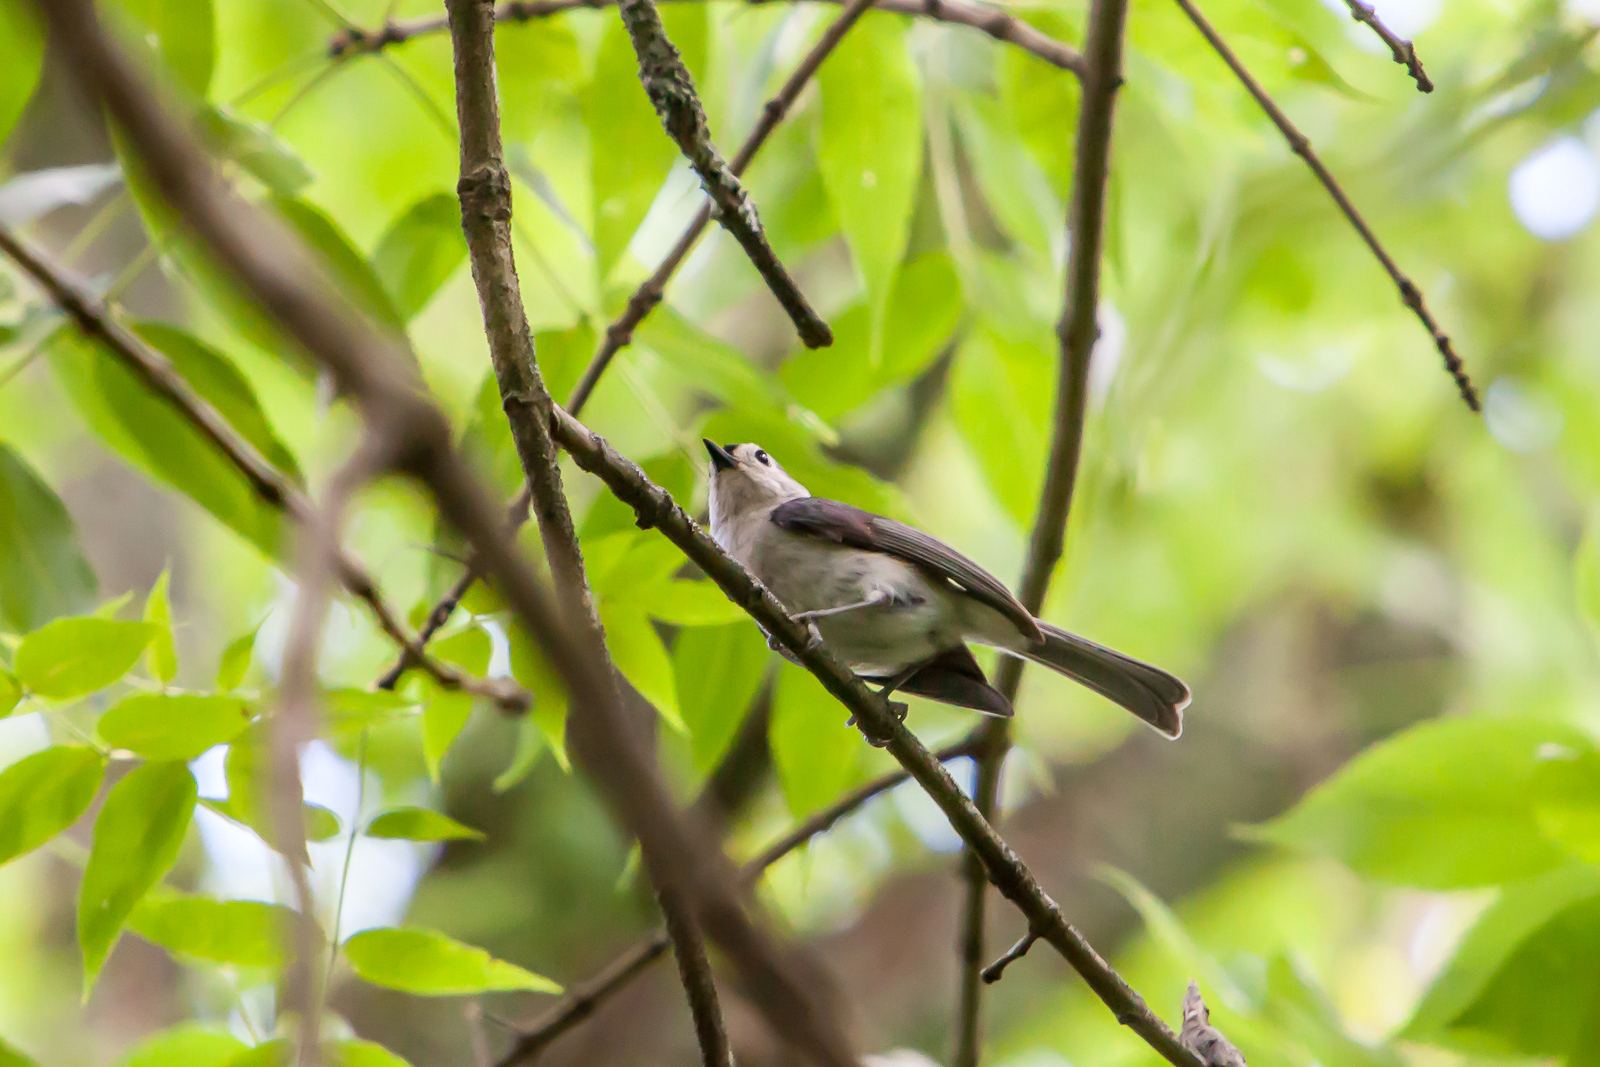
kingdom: Animalia
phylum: Chordata
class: Aves
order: Passeriformes
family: Paridae
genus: Baeolophus
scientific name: Baeolophus bicolor
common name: Tufted titmouse
